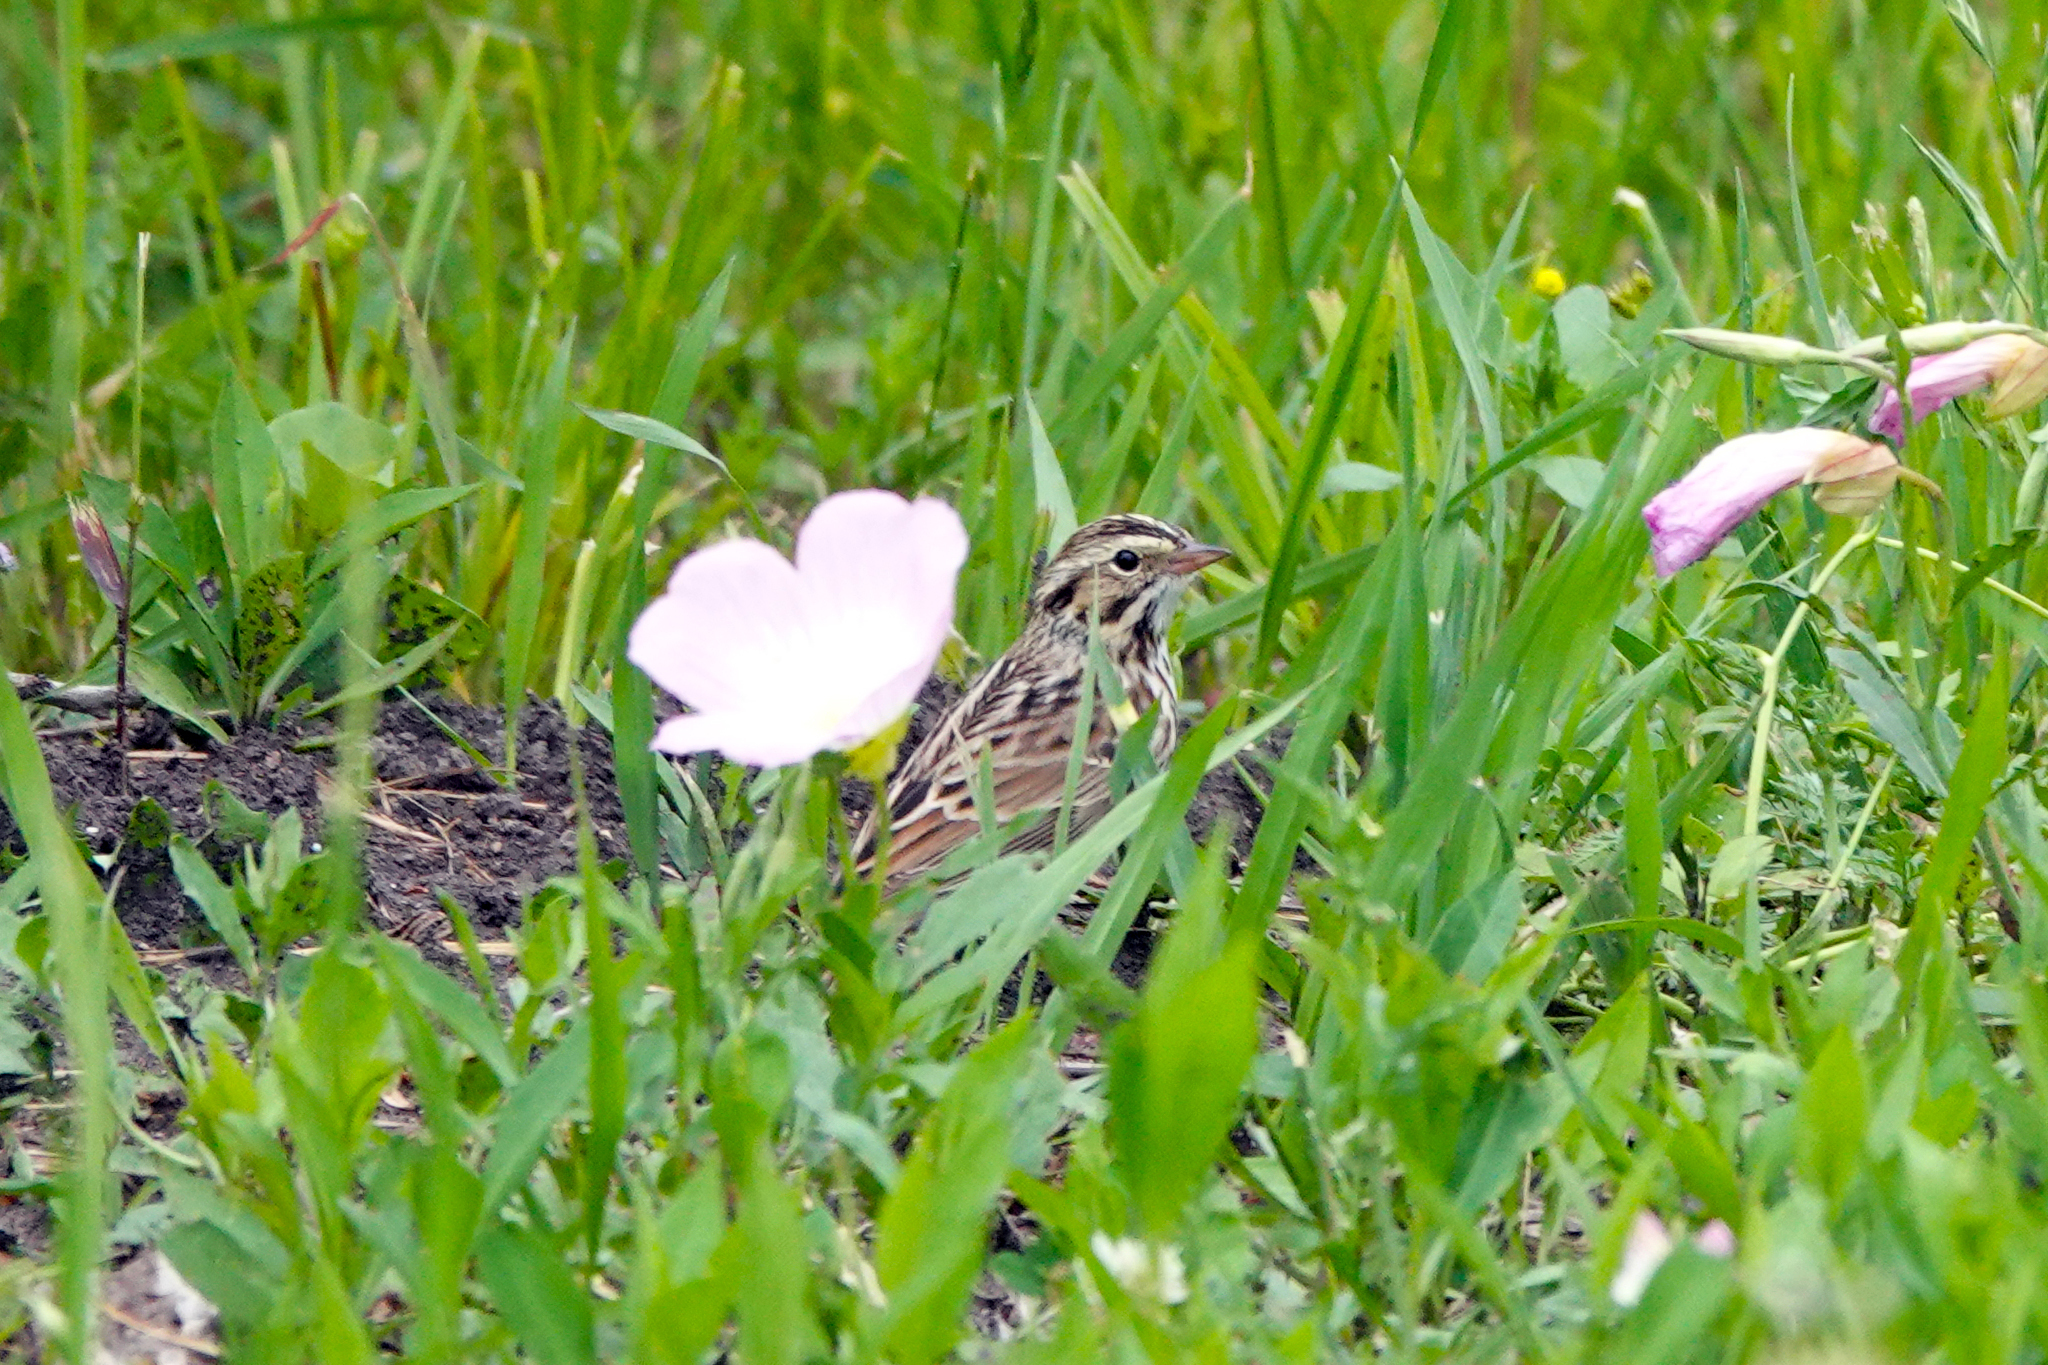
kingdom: Animalia
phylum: Chordata
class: Aves
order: Passeriformes
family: Passerellidae
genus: Passerculus
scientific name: Passerculus sandwichensis
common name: Savannah sparrow
